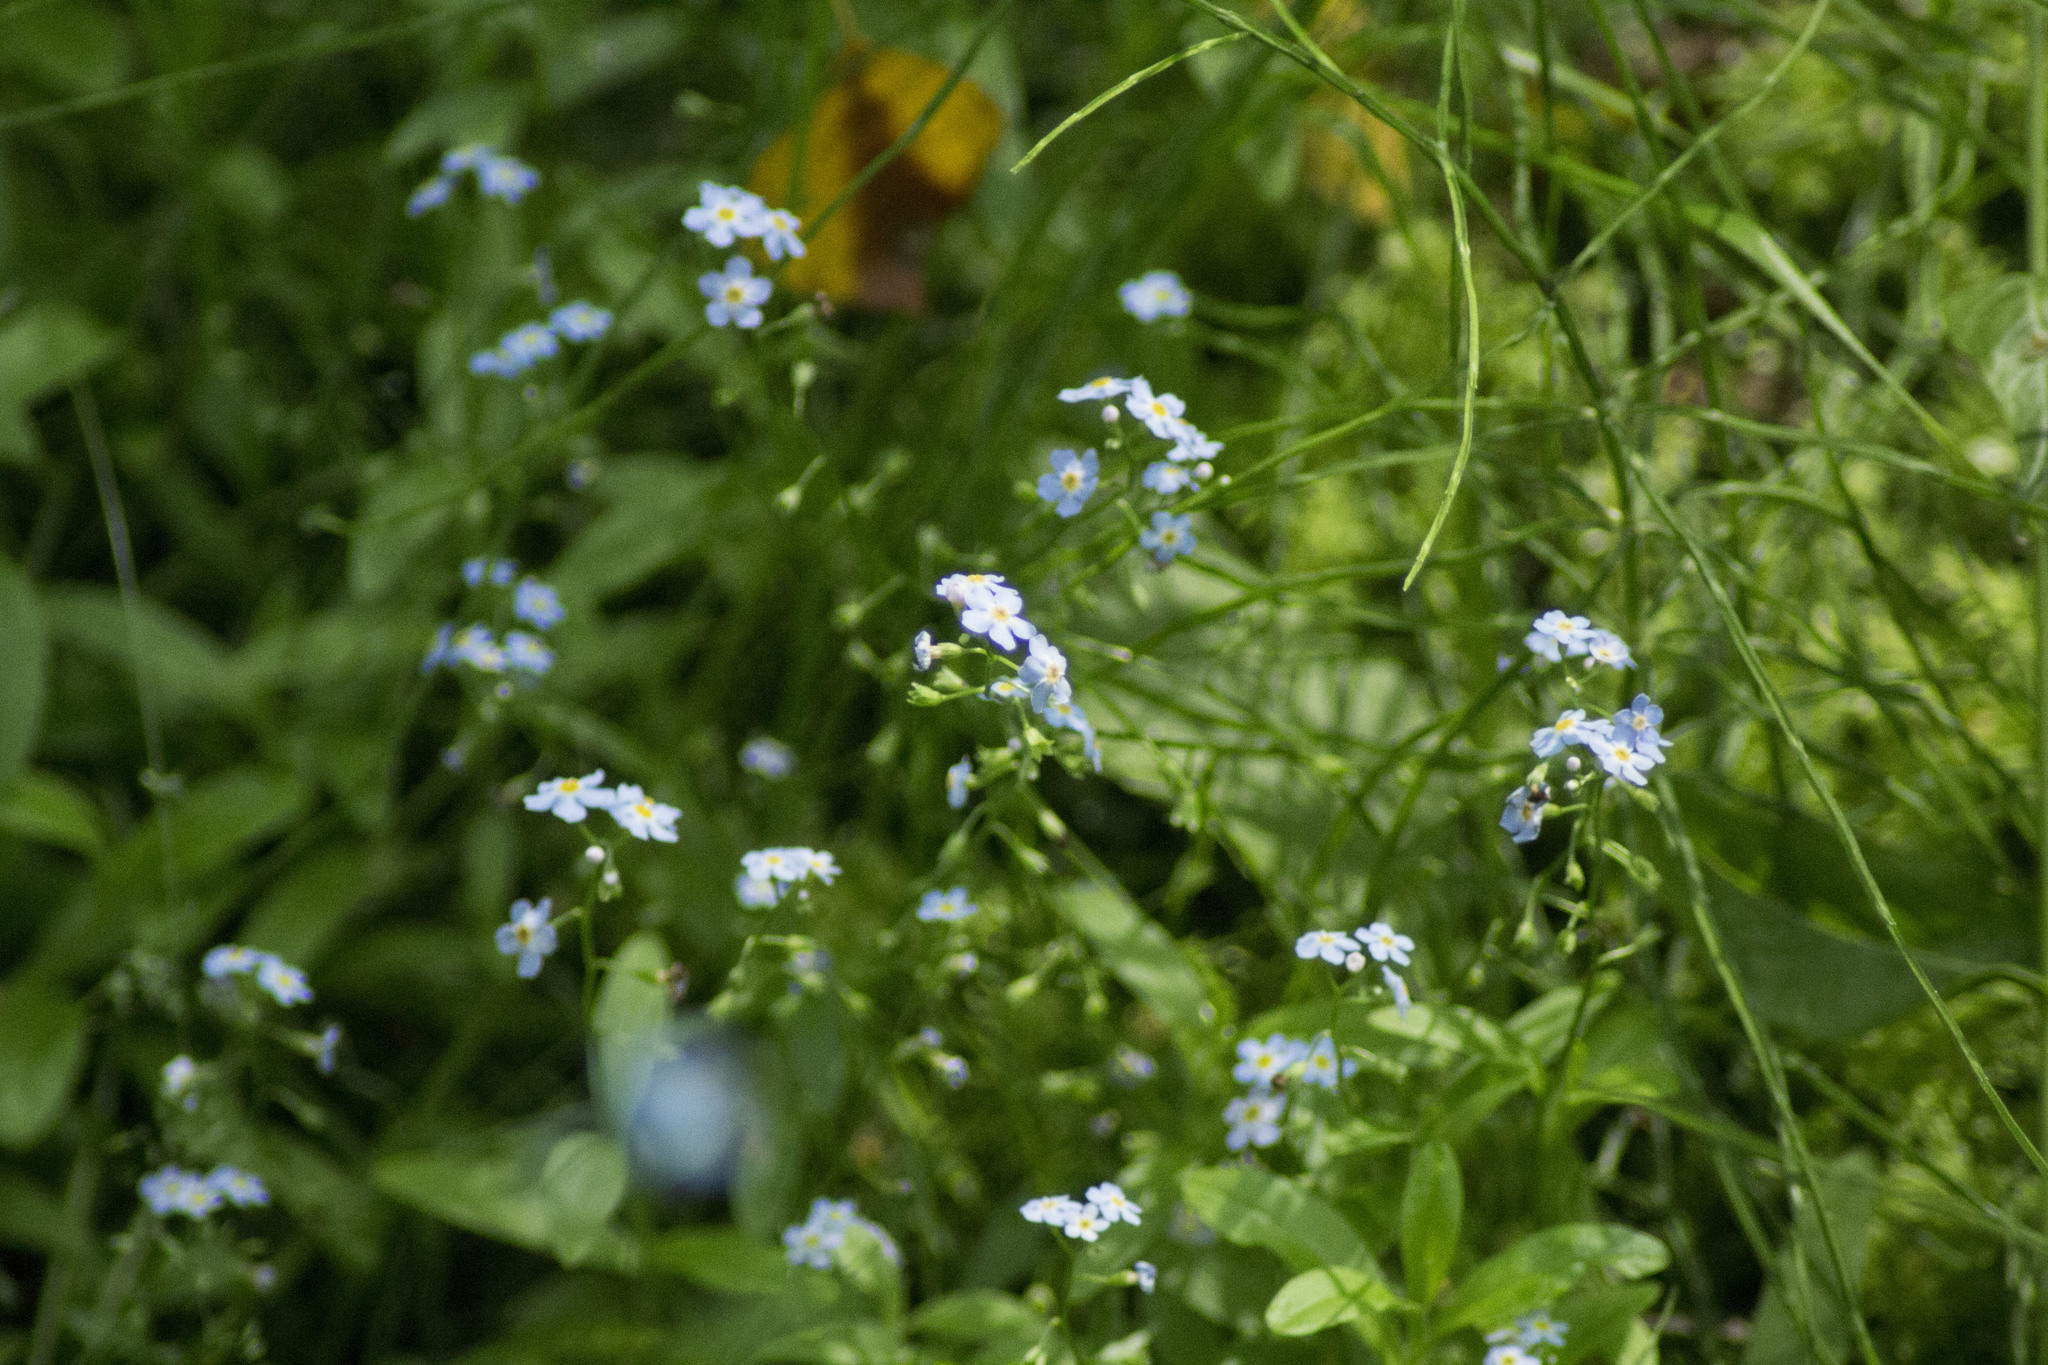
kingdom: Plantae
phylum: Tracheophyta
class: Magnoliopsida
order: Boraginales
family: Boraginaceae
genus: Myosotis
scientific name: Myosotis scorpioides
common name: Water forget-me-not
